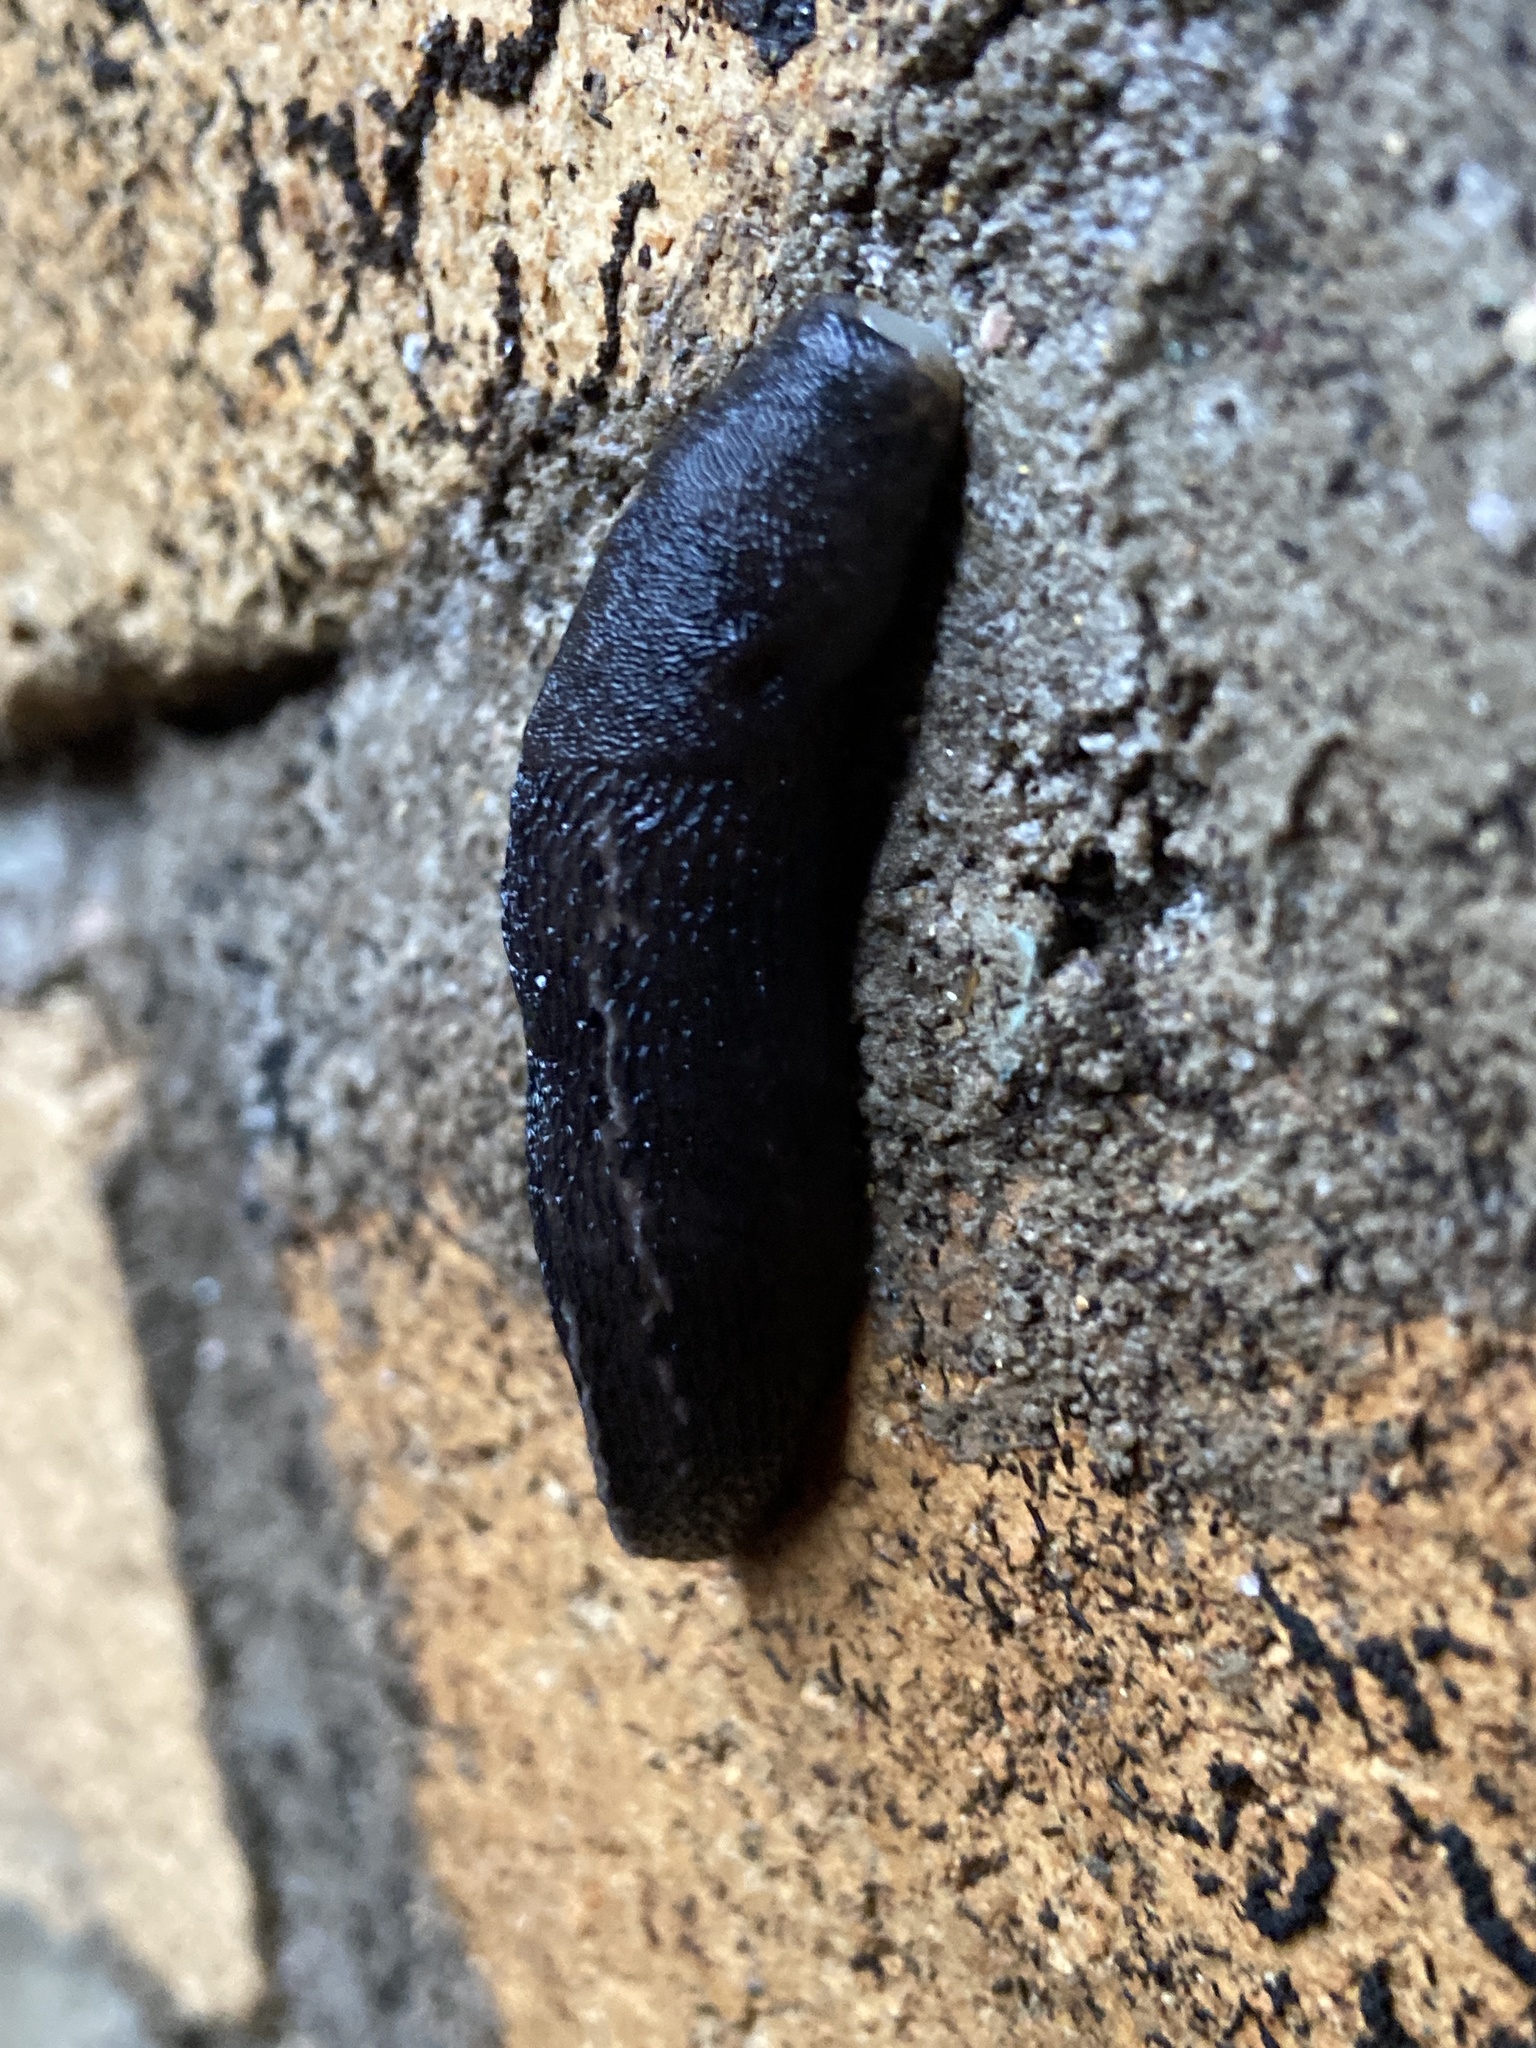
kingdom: Animalia
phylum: Mollusca
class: Gastropoda
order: Stylommatophora
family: Limacidae
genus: Limax
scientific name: Limax maximus
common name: Great grey slug
